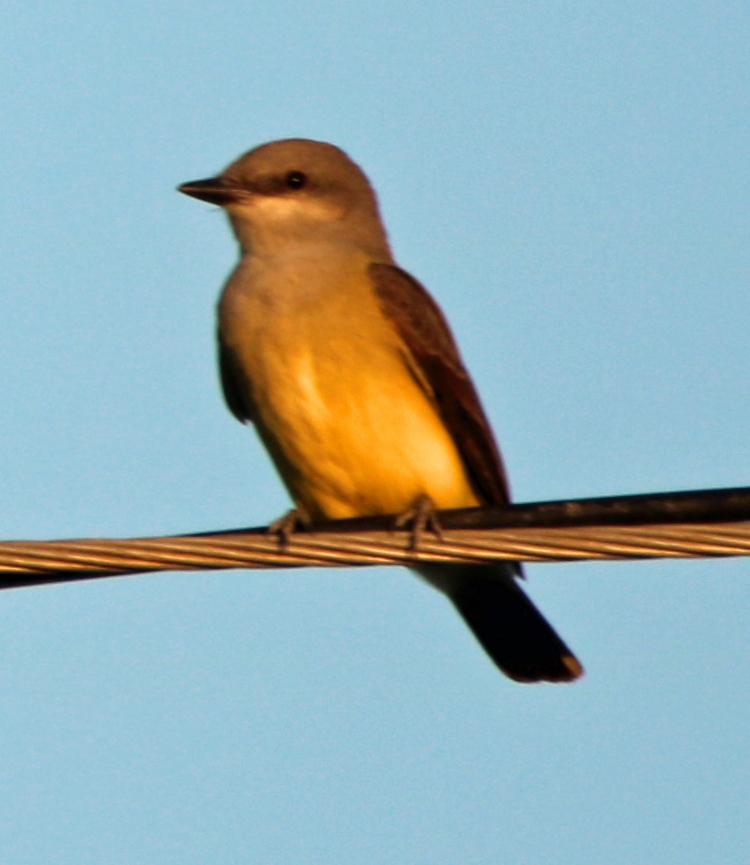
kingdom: Animalia
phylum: Chordata
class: Aves
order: Passeriformes
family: Tyrannidae
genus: Tyrannus
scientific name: Tyrannus verticalis
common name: Western kingbird
